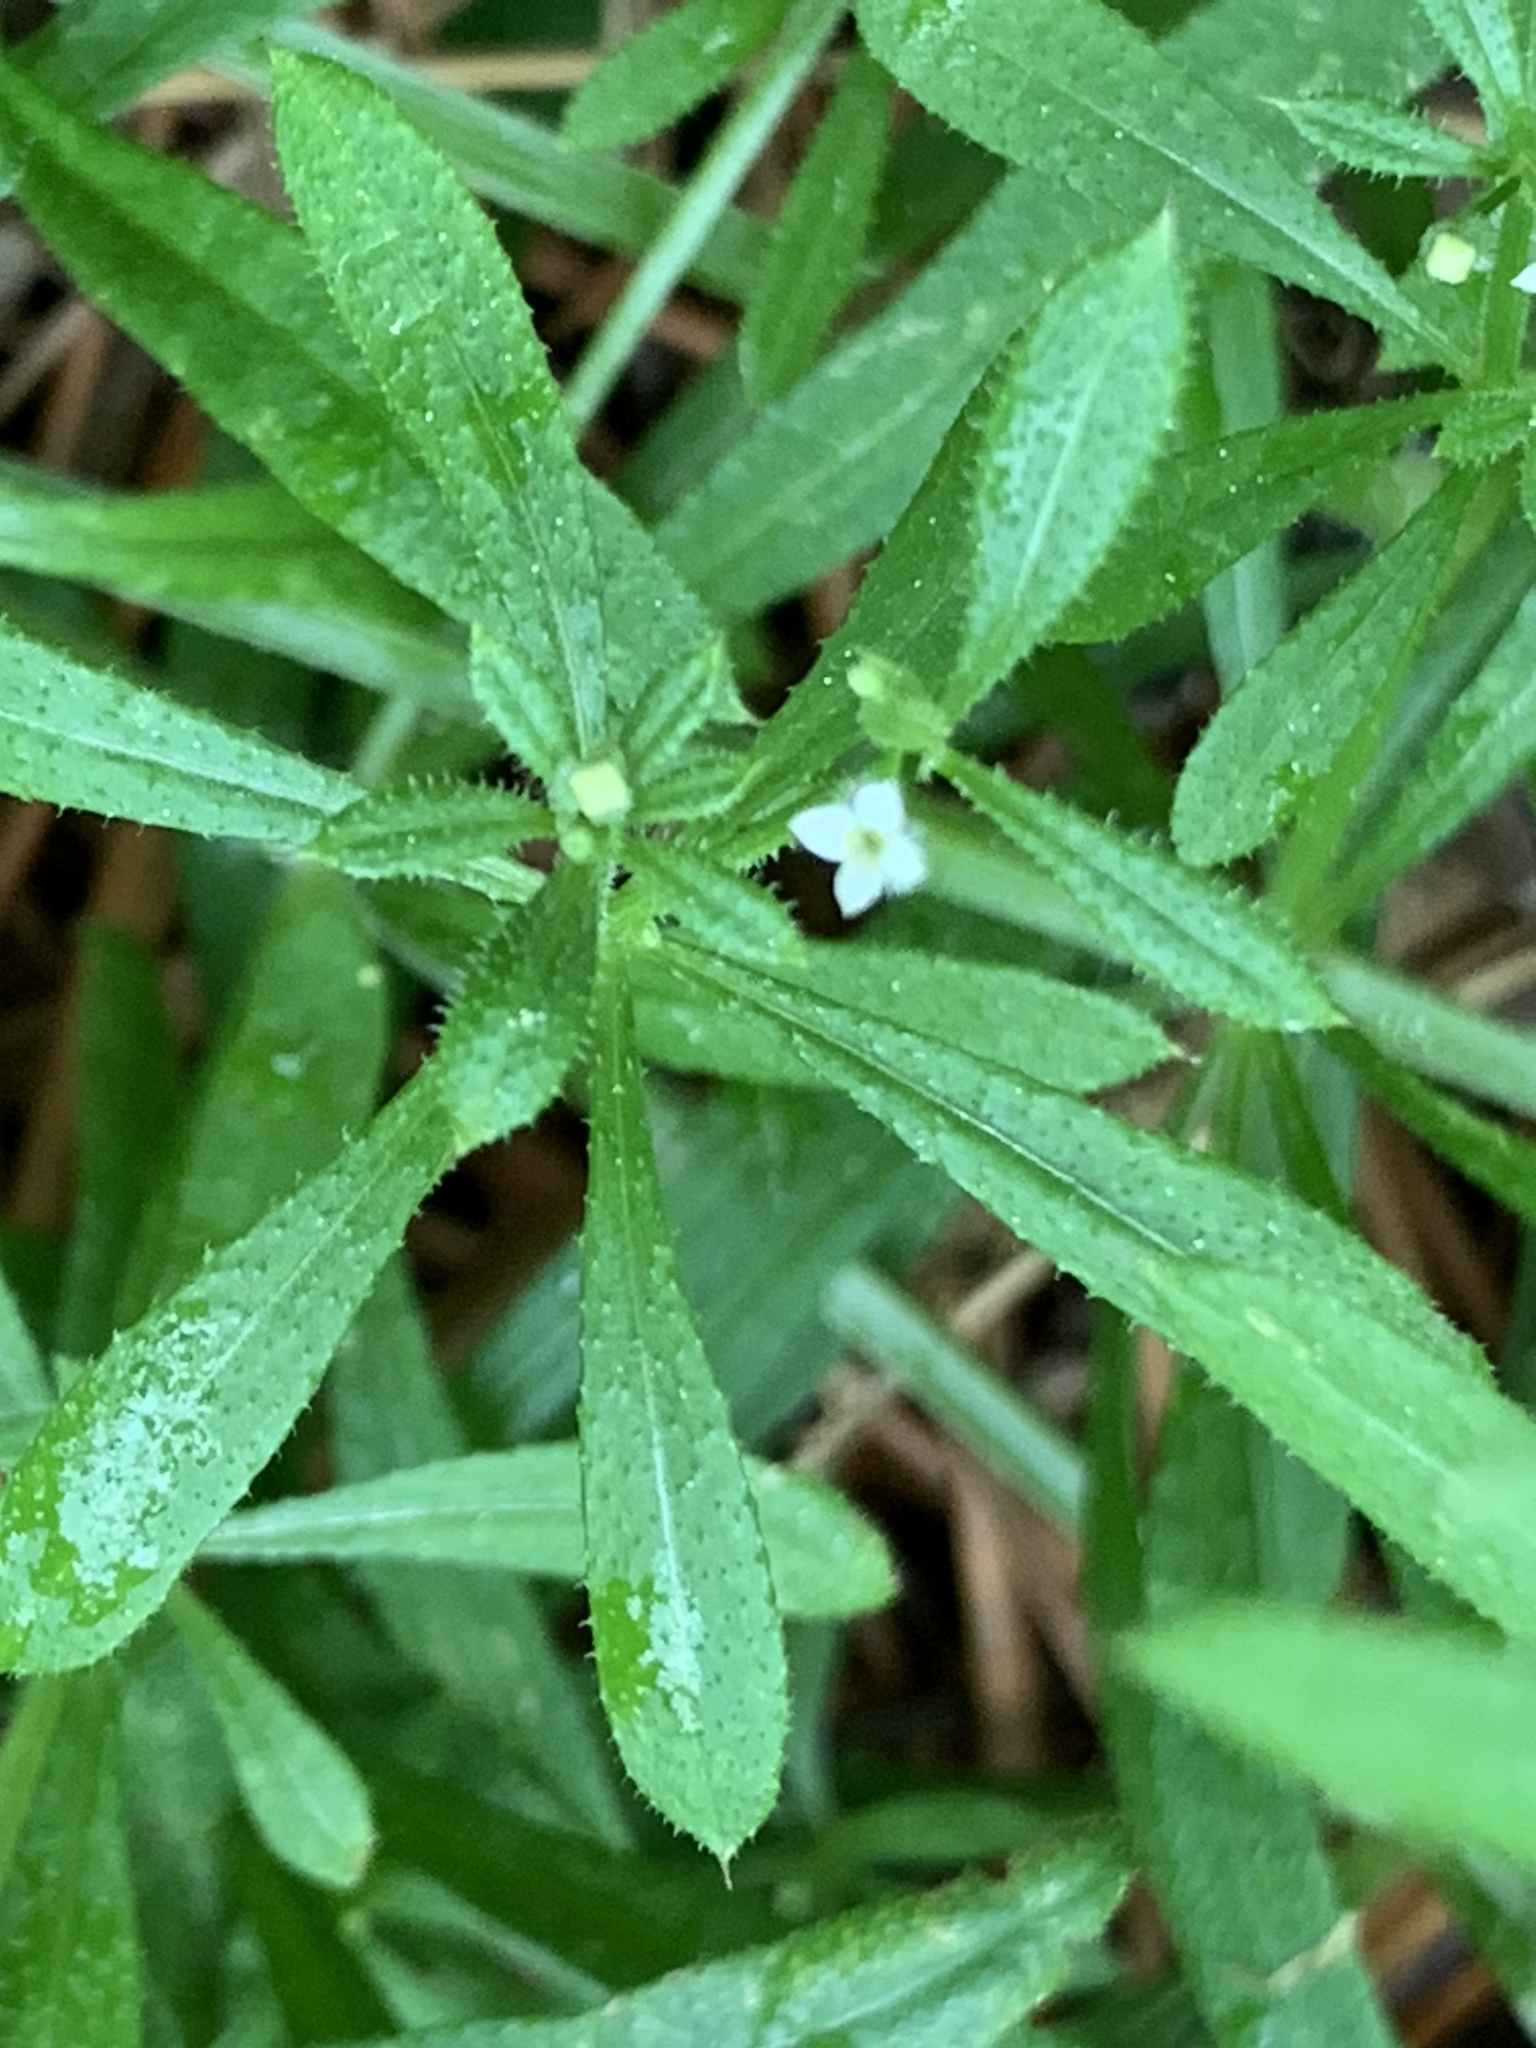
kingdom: Plantae
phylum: Tracheophyta
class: Magnoliopsida
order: Gentianales
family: Rubiaceae
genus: Galium
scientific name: Galium aparine
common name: Cleavers
